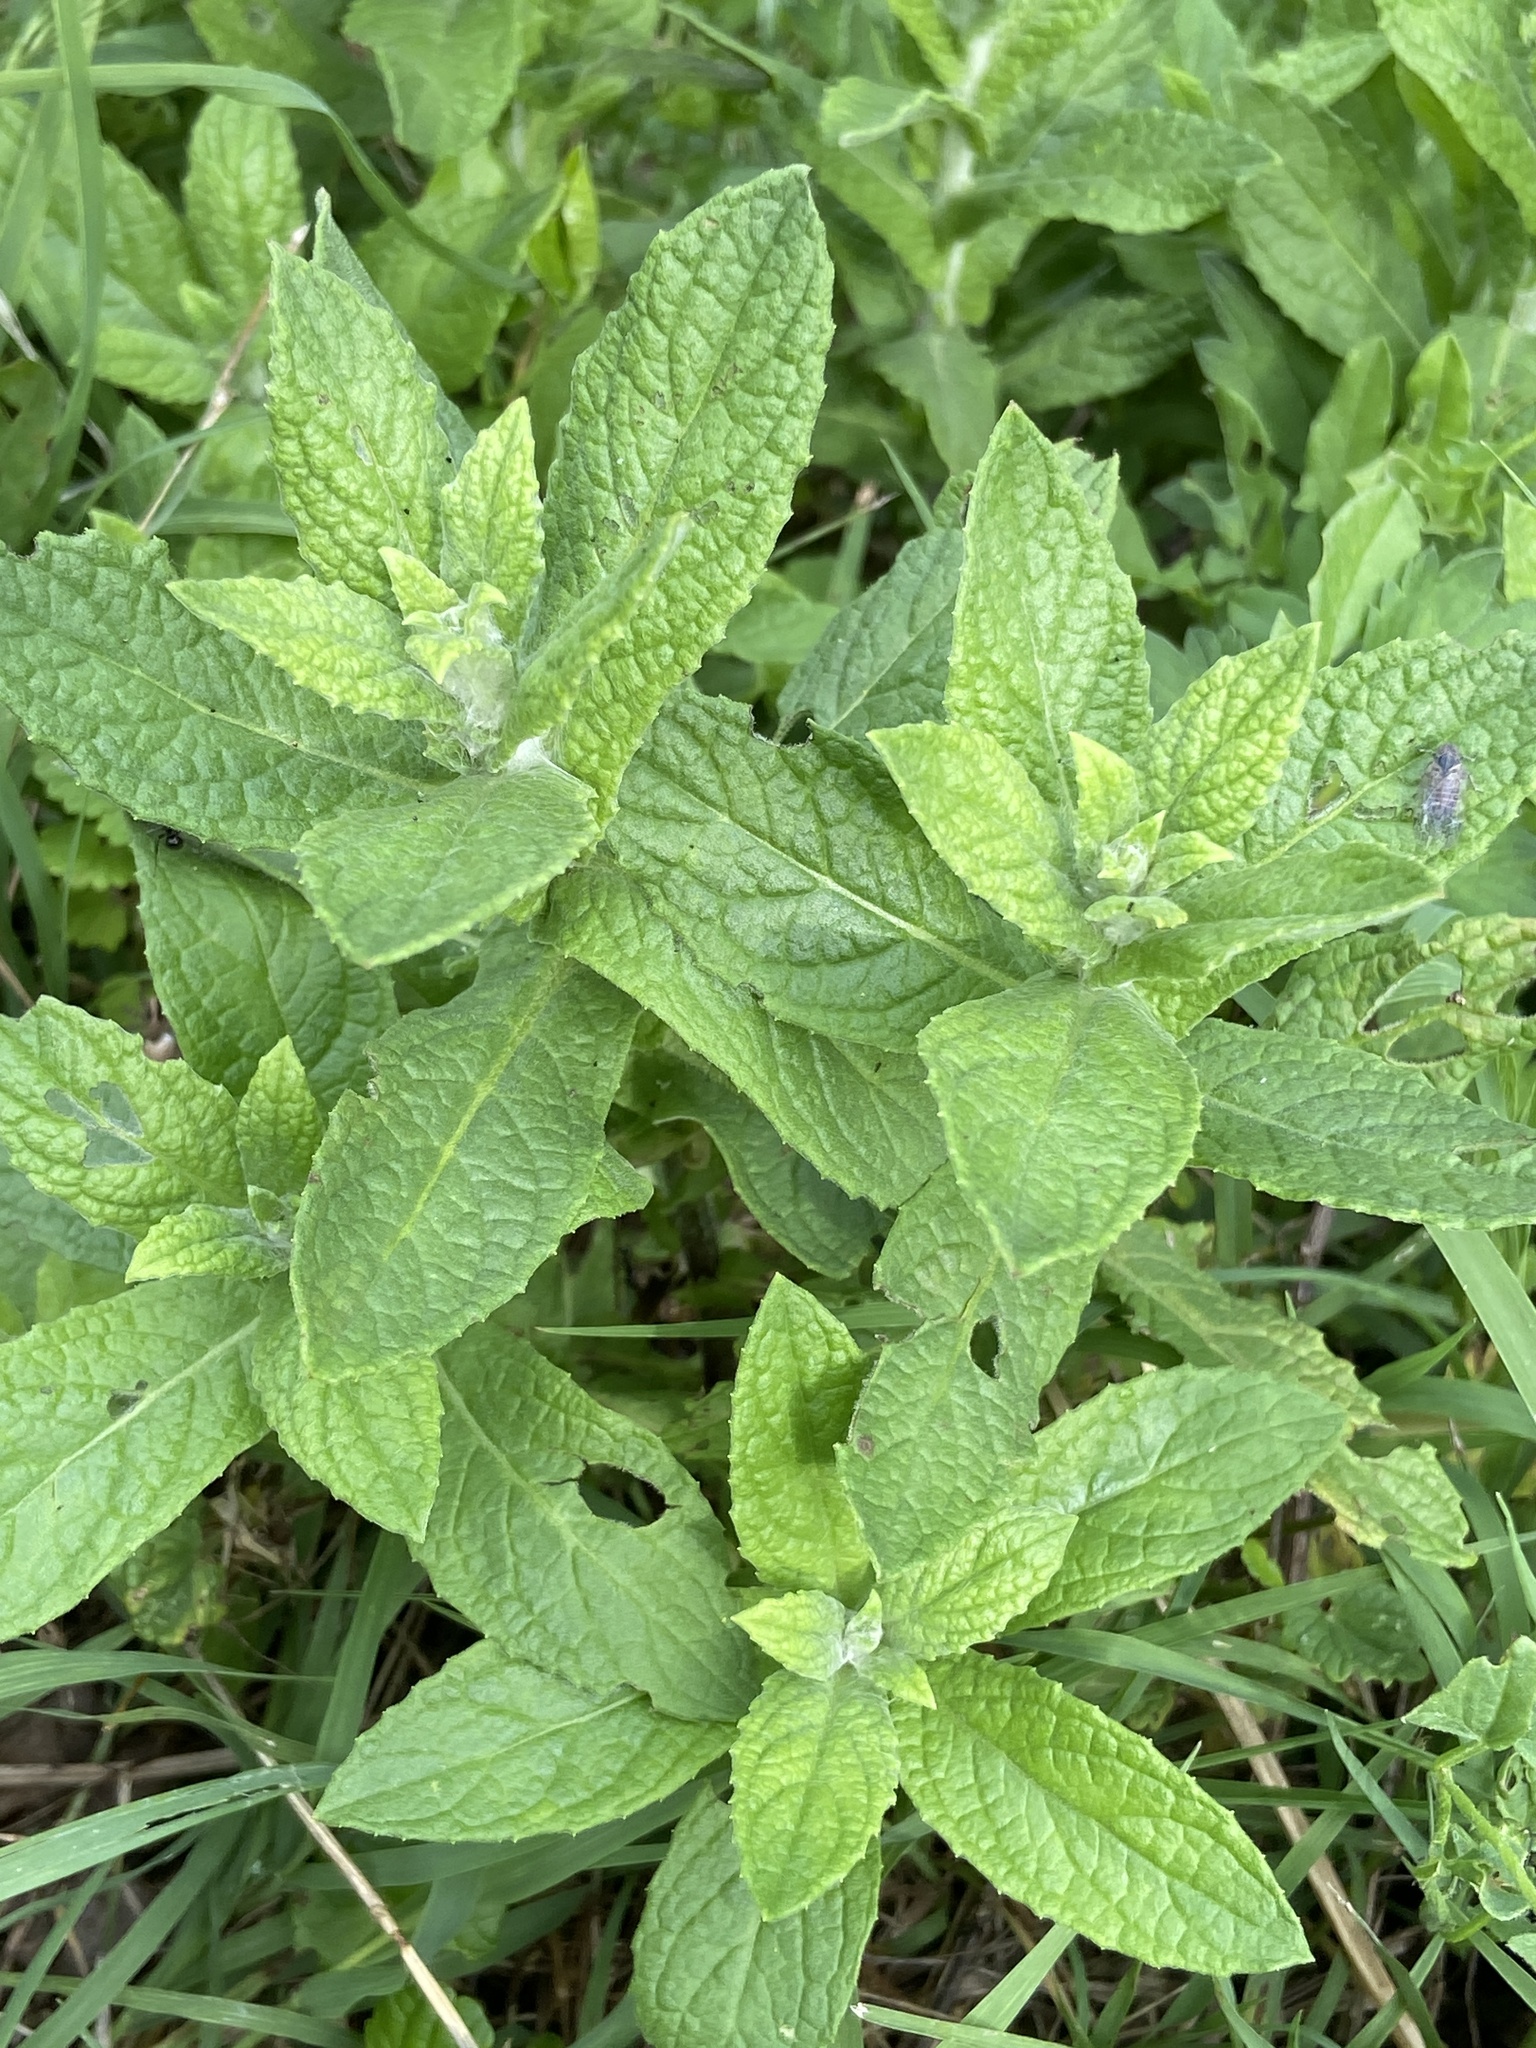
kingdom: Plantae
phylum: Tracheophyta
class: Magnoliopsida
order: Asterales
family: Asteraceae
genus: Pulicaria
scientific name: Pulicaria dysenterica
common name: Common fleabane
